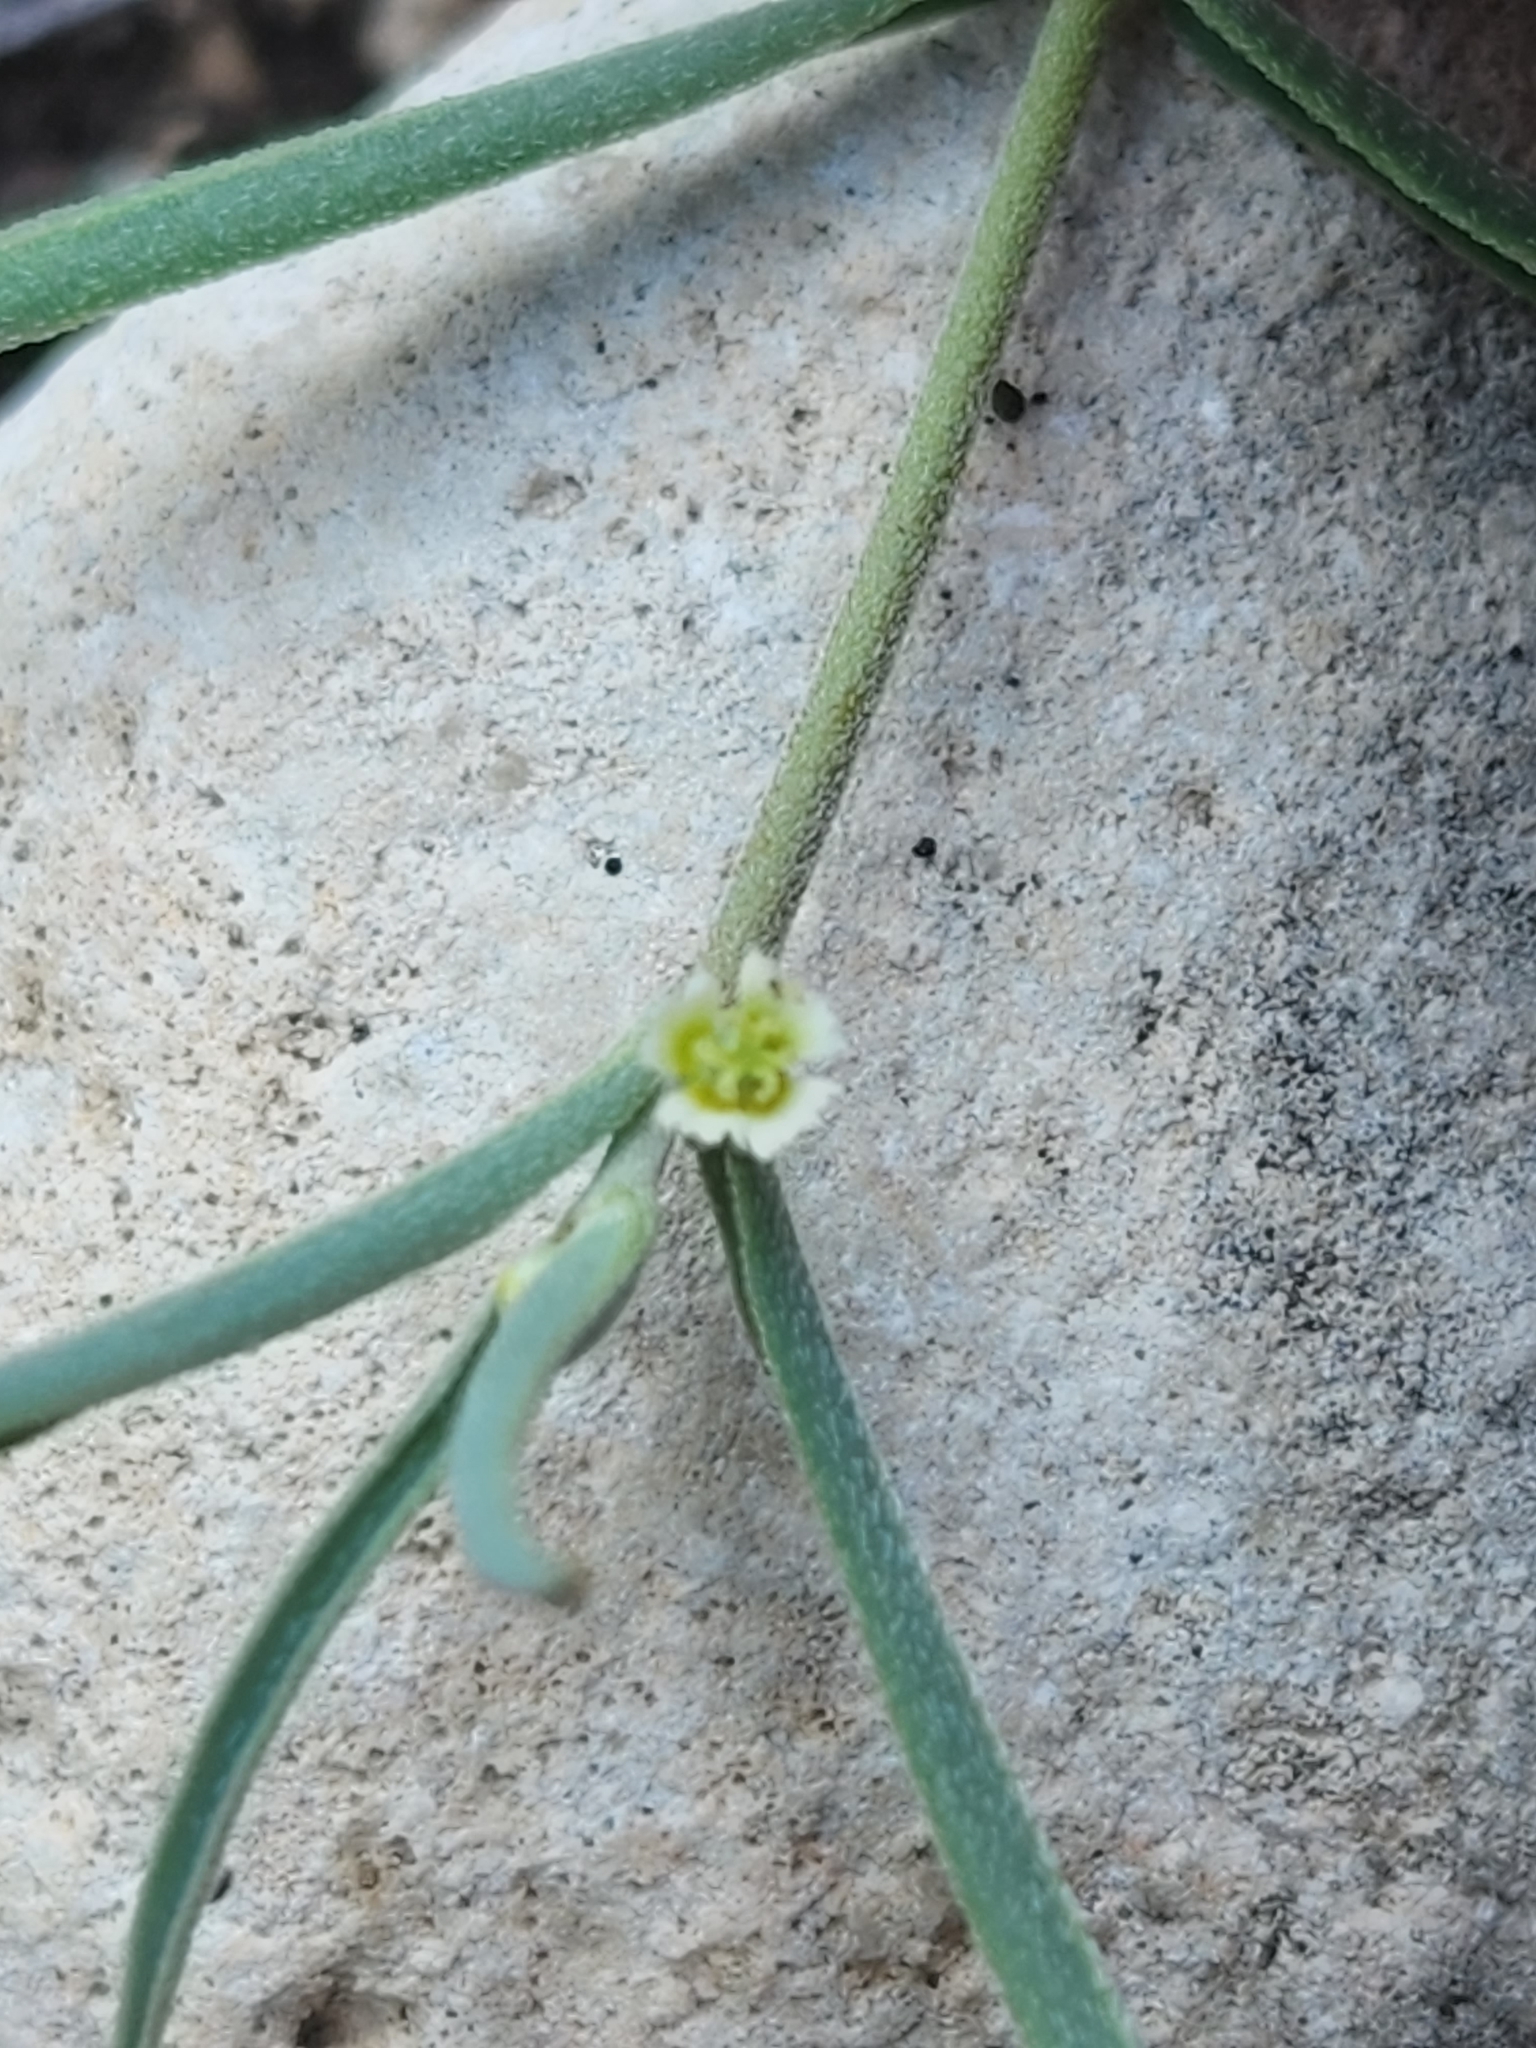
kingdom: Plantae
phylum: Tracheophyta
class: Magnoliopsida
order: Malpighiales
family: Euphorbiaceae
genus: Euphorbia
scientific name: Euphorbia angusta
